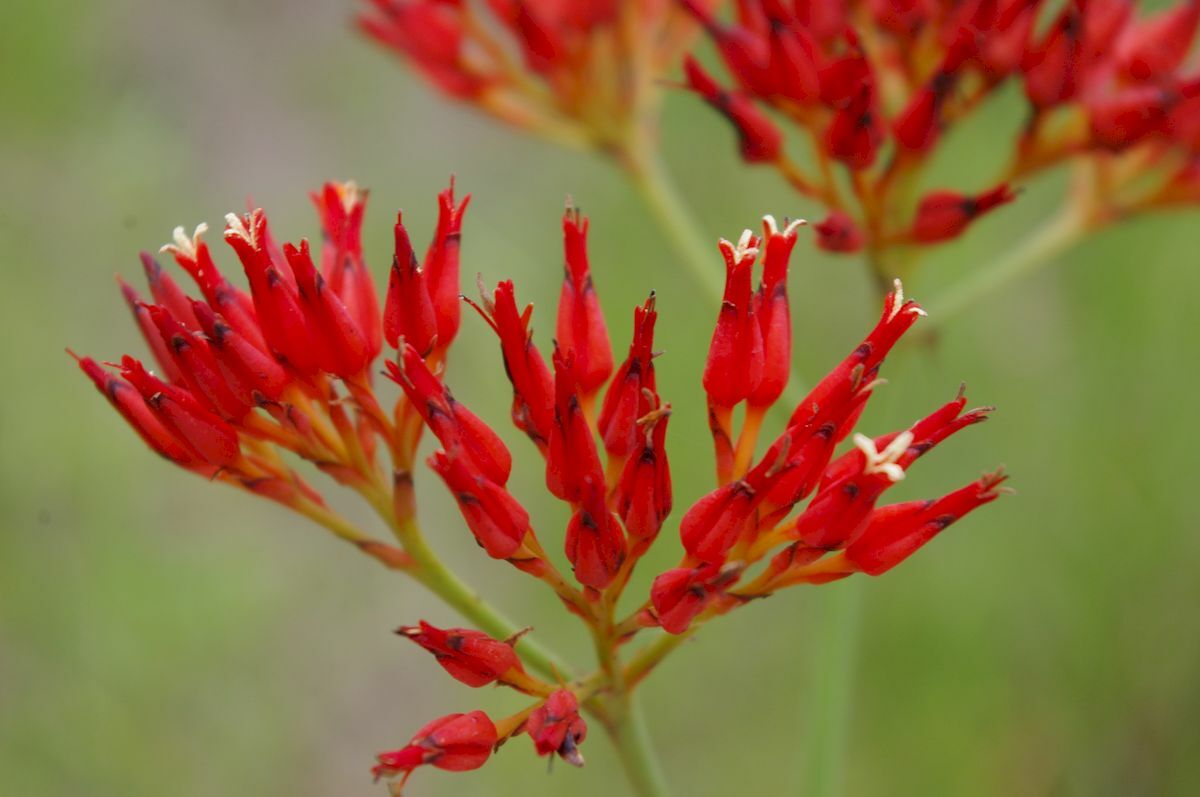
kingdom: Plantae
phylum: Tracheophyta
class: Liliopsida
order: Commelinales
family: Haemodoraceae
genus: Haemodorum
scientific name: Haemodorum coccineum
